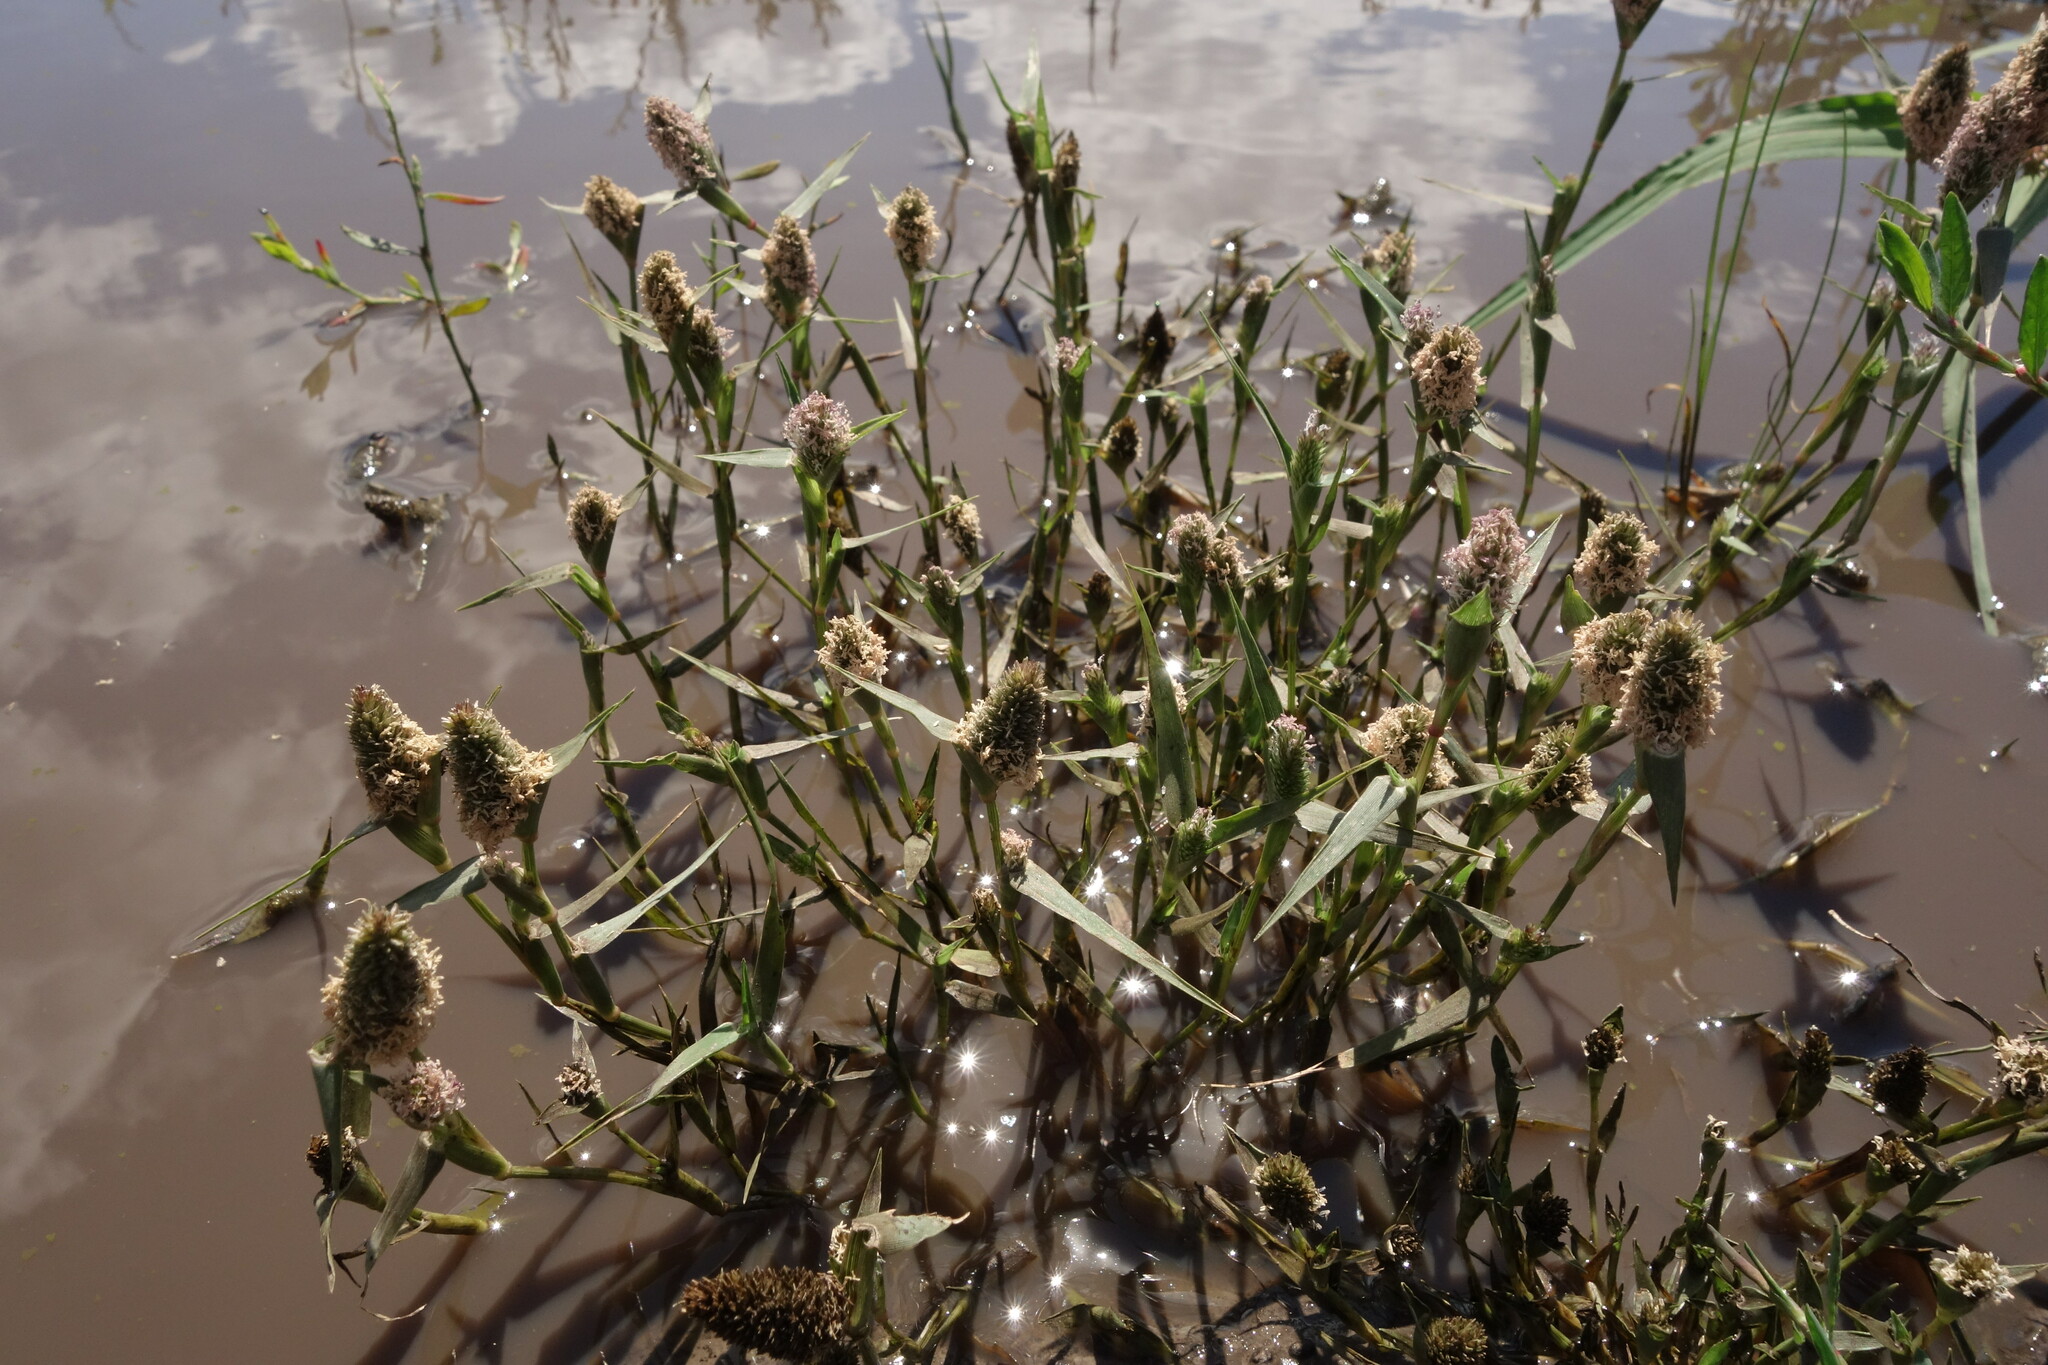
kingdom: Plantae
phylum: Tracheophyta
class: Liliopsida
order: Poales
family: Poaceae
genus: Sporobolus
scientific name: Sporobolus schoenoides
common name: Rush-like timothy
